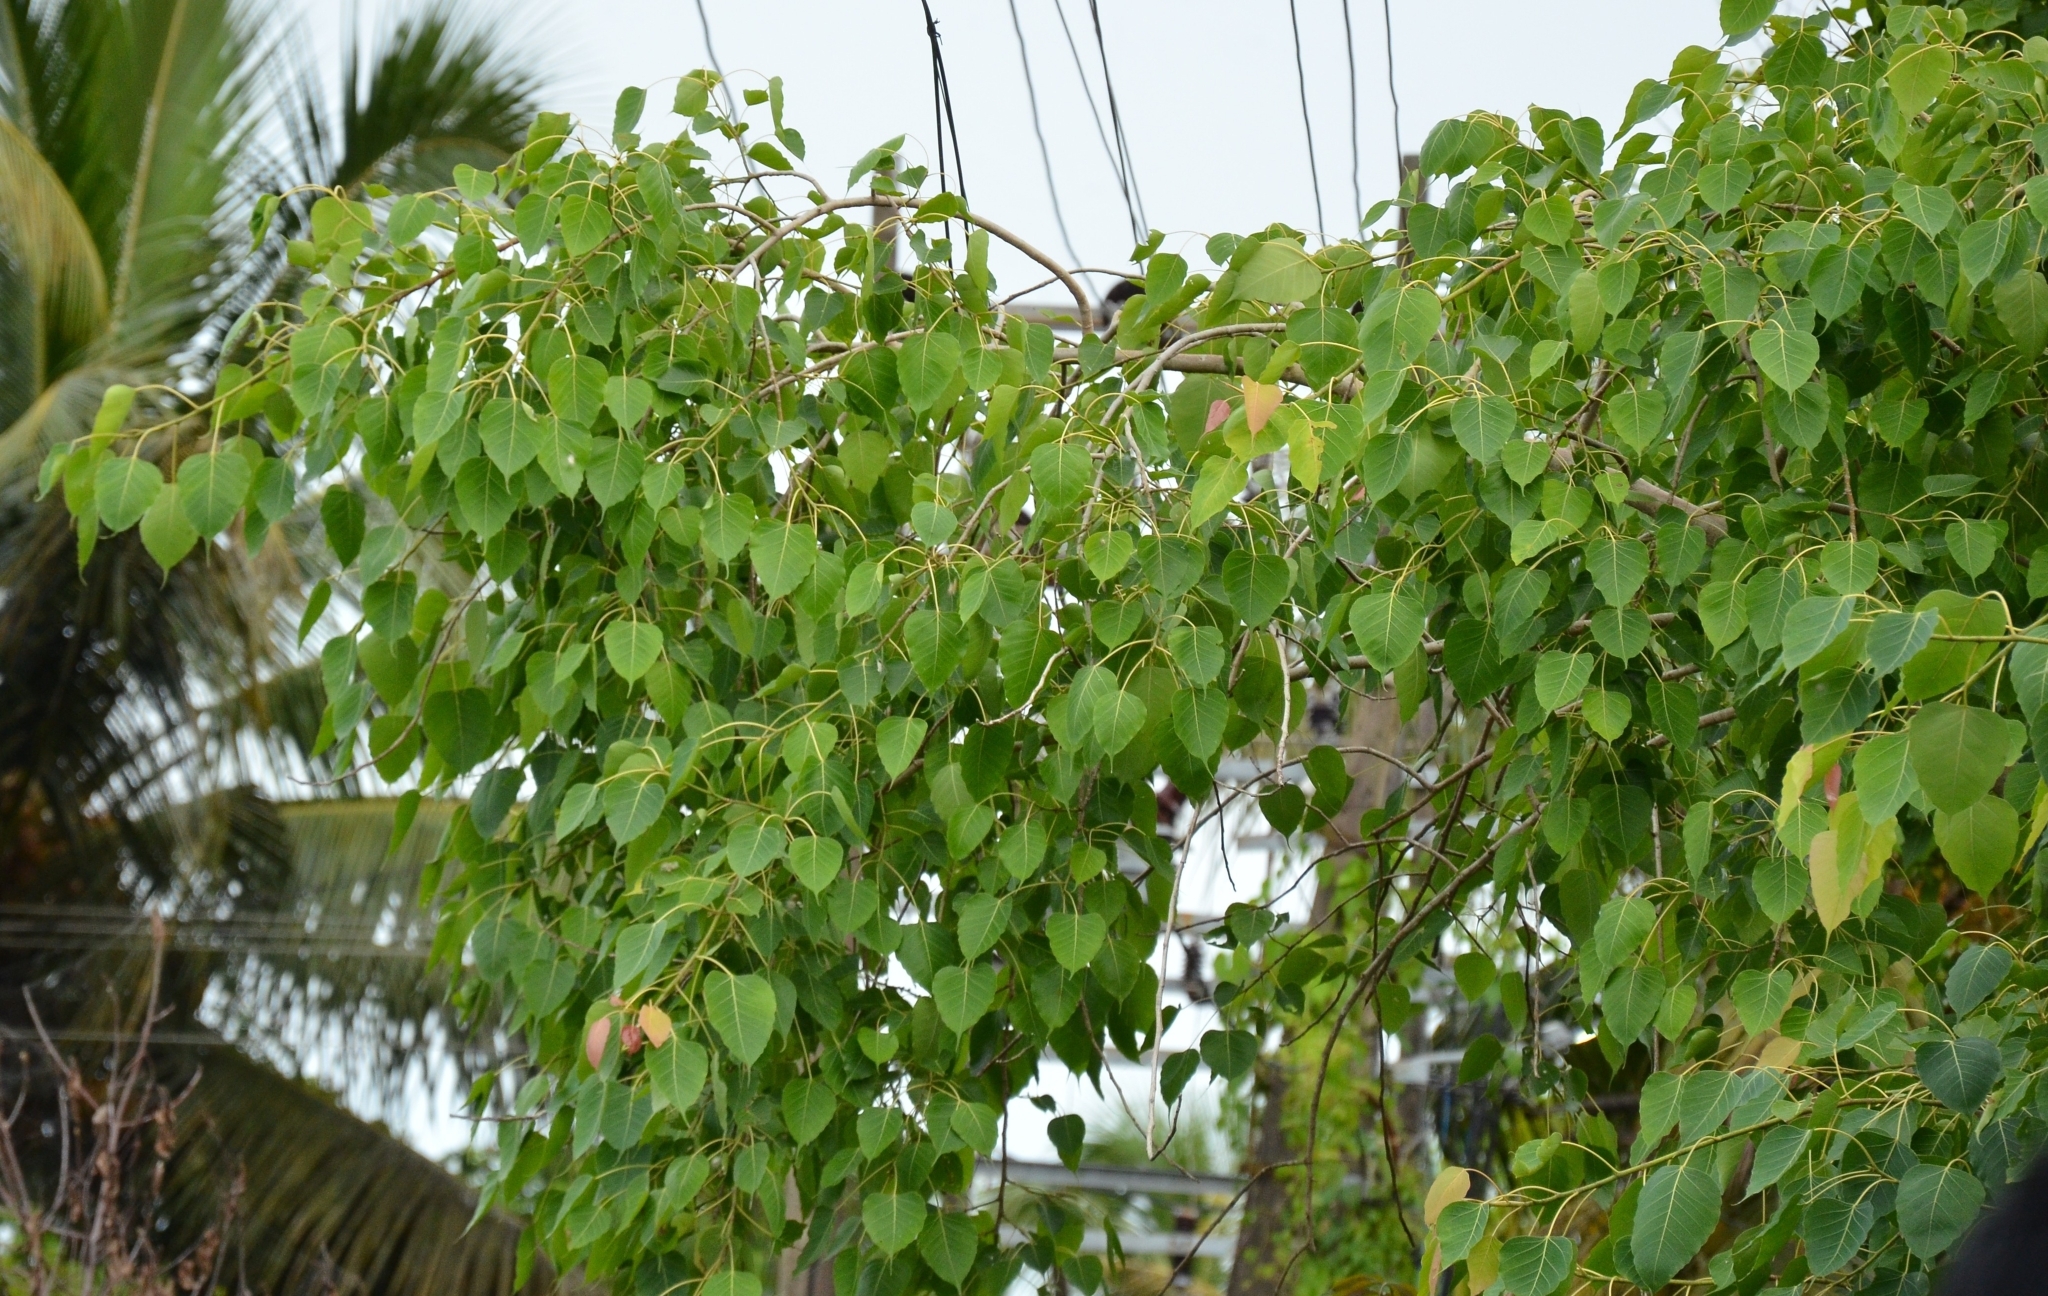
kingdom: Plantae
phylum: Tracheophyta
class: Magnoliopsida
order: Rosales
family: Moraceae
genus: Ficus
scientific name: Ficus religiosa
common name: Bodhi tree
